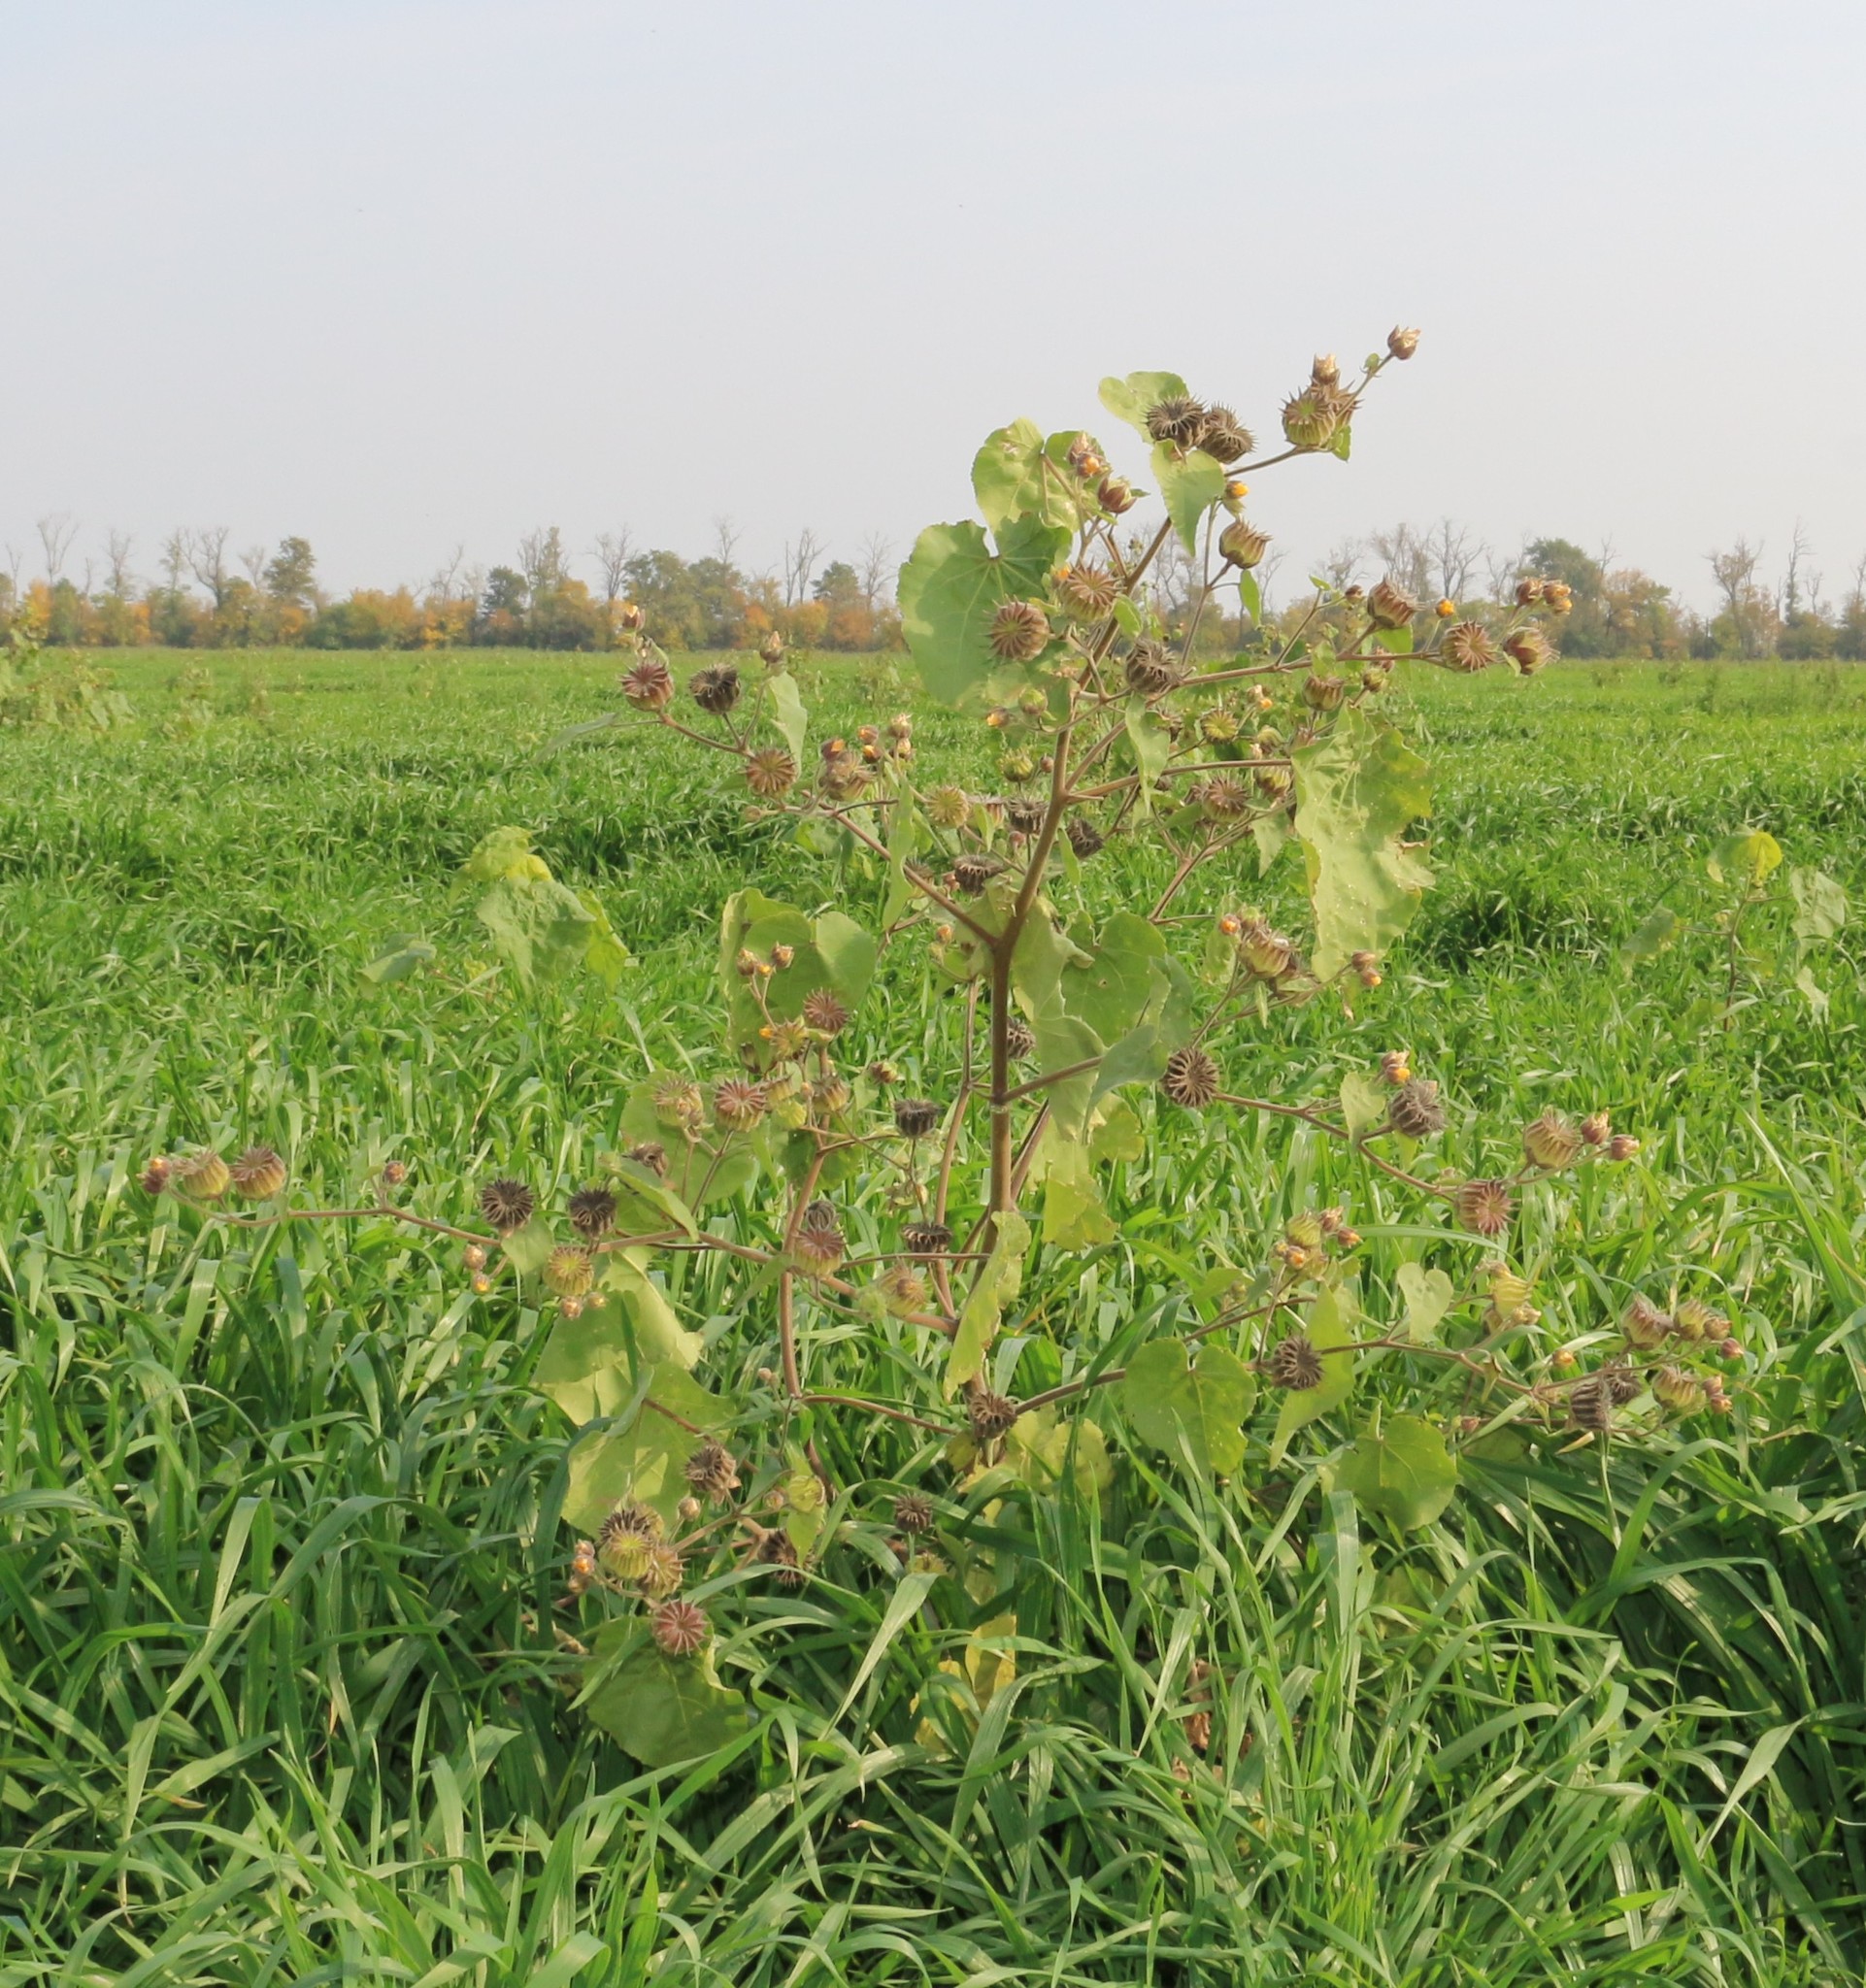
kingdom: Plantae
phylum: Tracheophyta
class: Magnoliopsida
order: Malvales
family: Malvaceae
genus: Abutilon
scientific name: Abutilon theophrasti
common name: Velvetleaf
